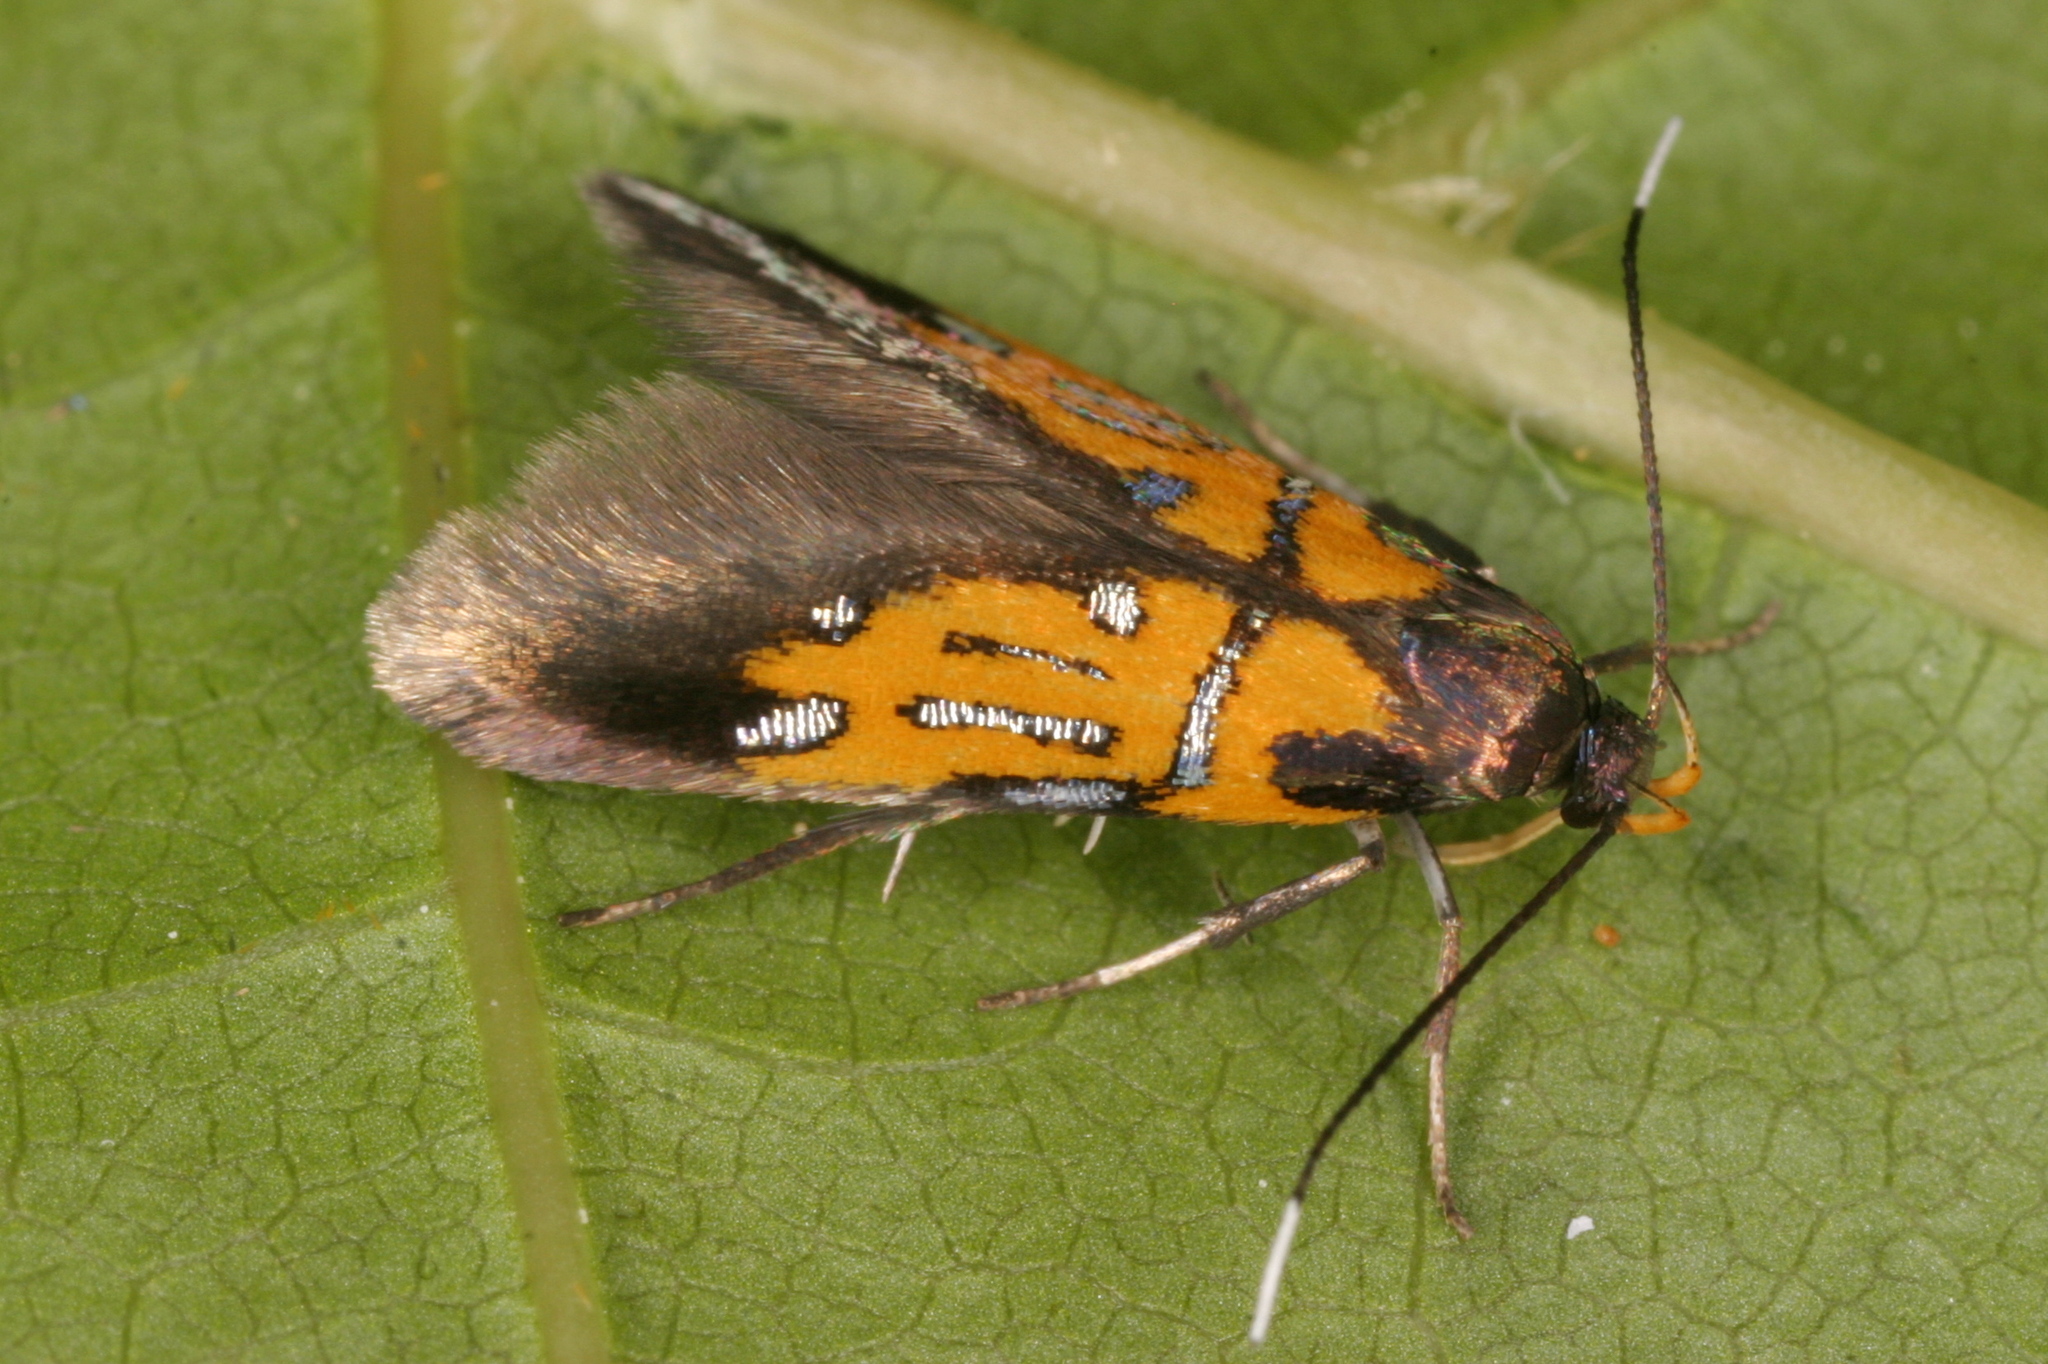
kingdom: Animalia
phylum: Arthropoda
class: Insecta
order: Lepidoptera
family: Oecophoridae
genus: Schiffermuelleria
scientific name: Schiffermuelleria schaefferella
